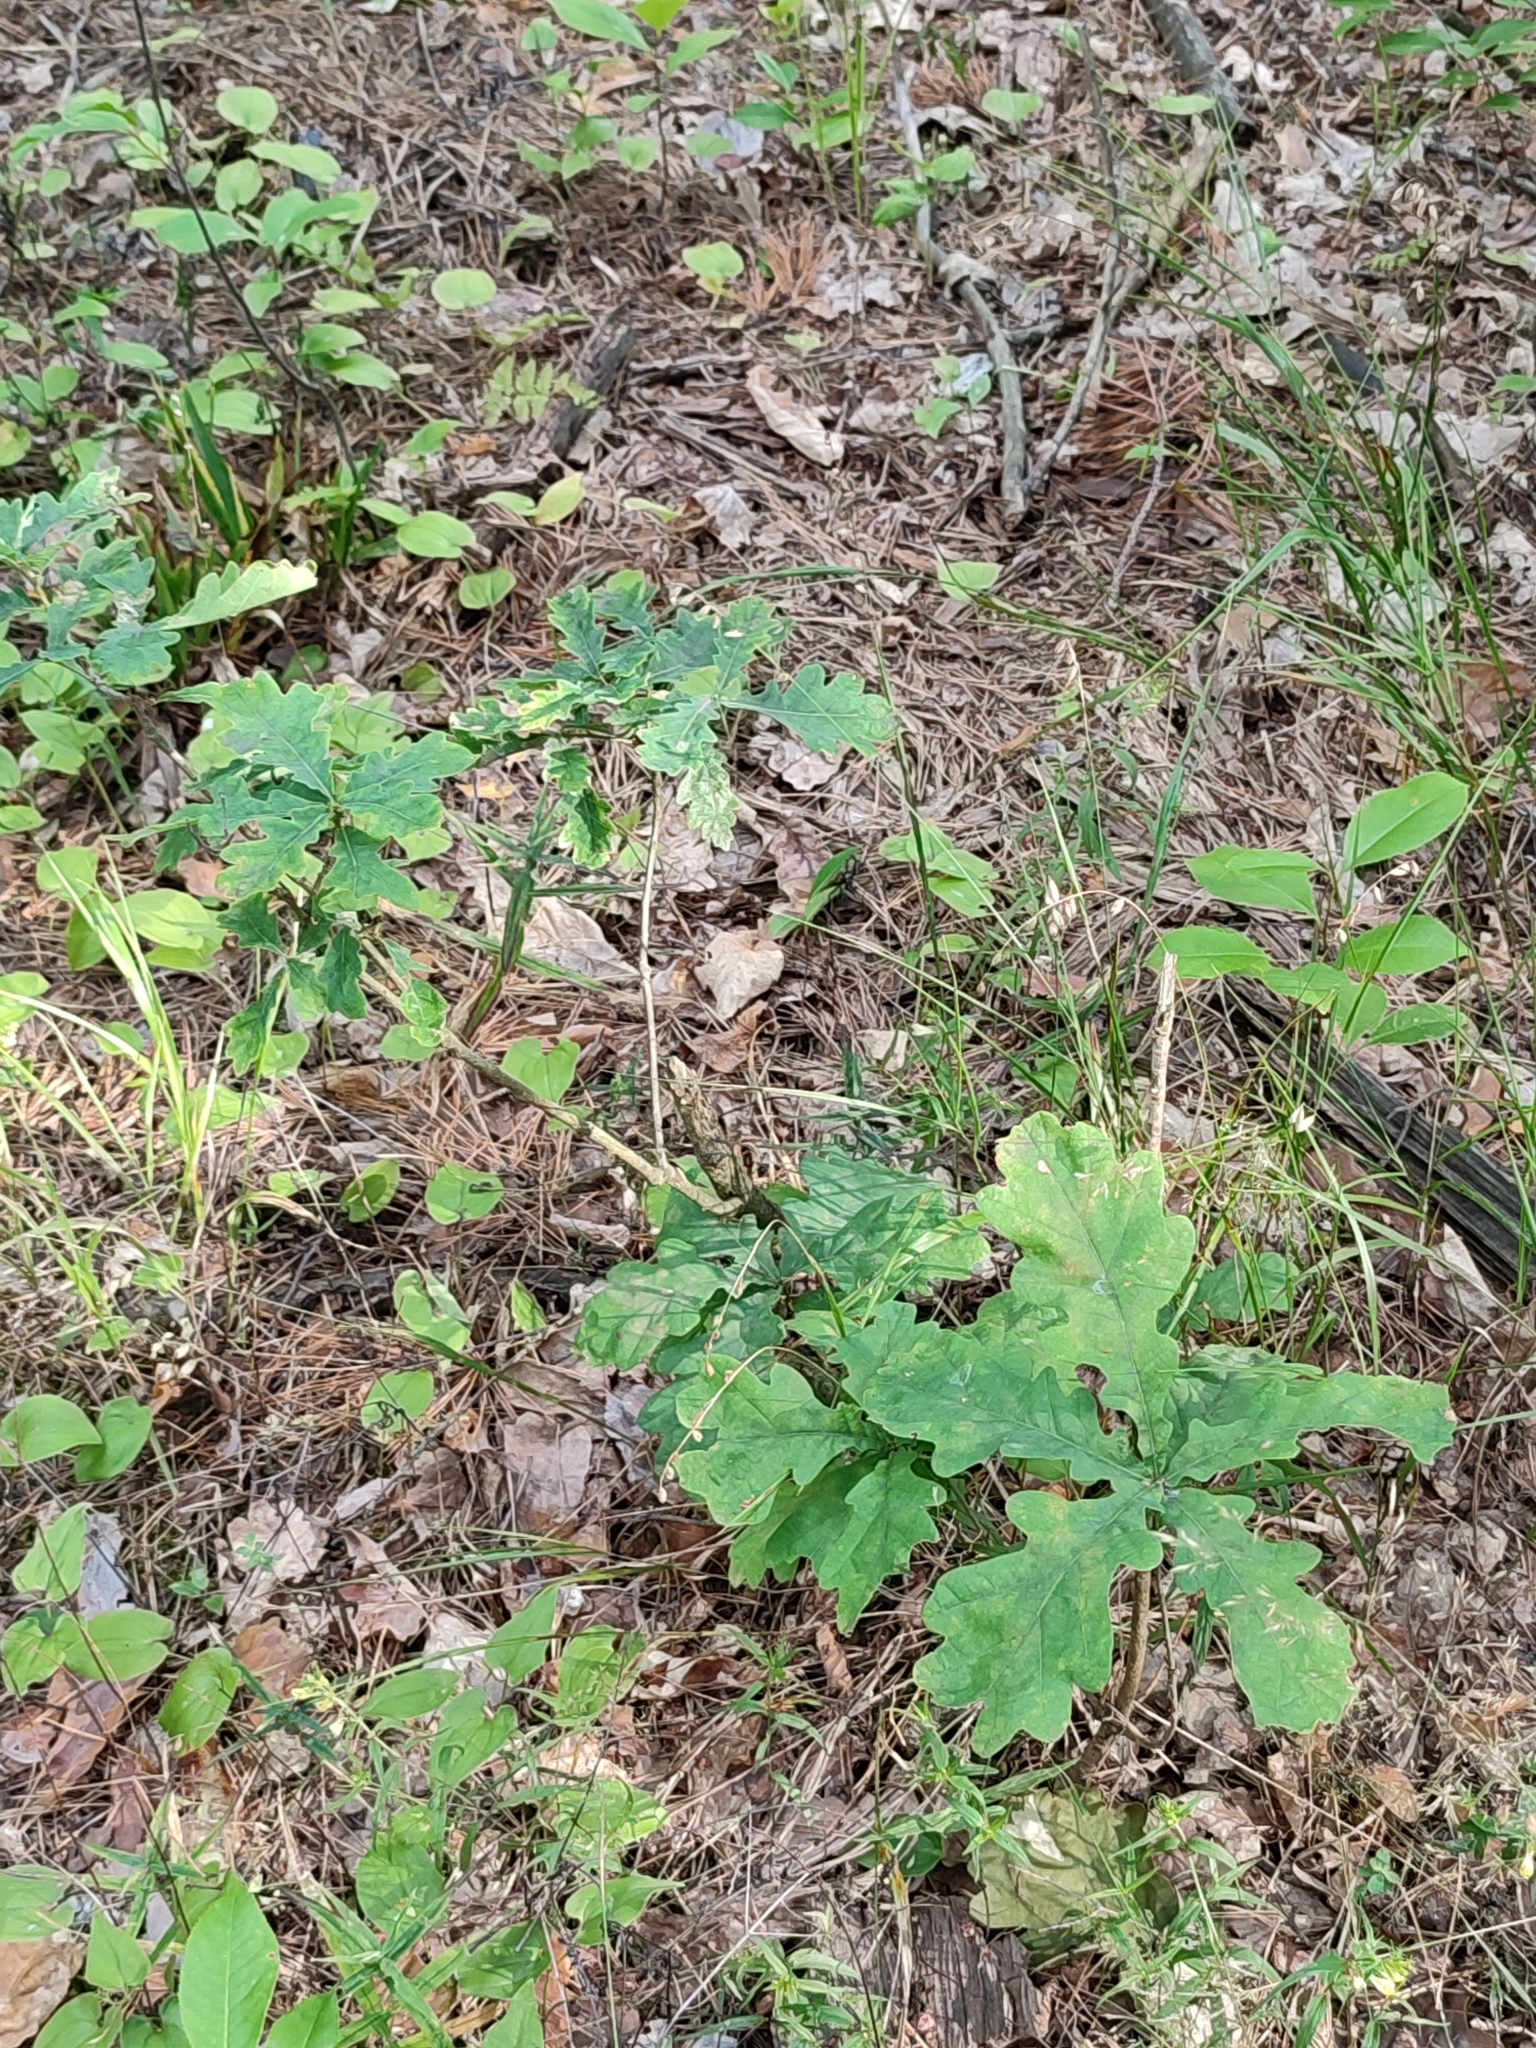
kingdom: Plantae
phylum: Tracheophyta
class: Magnoliopsida
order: Fagales
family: Fagaceae
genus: Quercus
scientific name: Quercus robur
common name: Pedunculate oak
